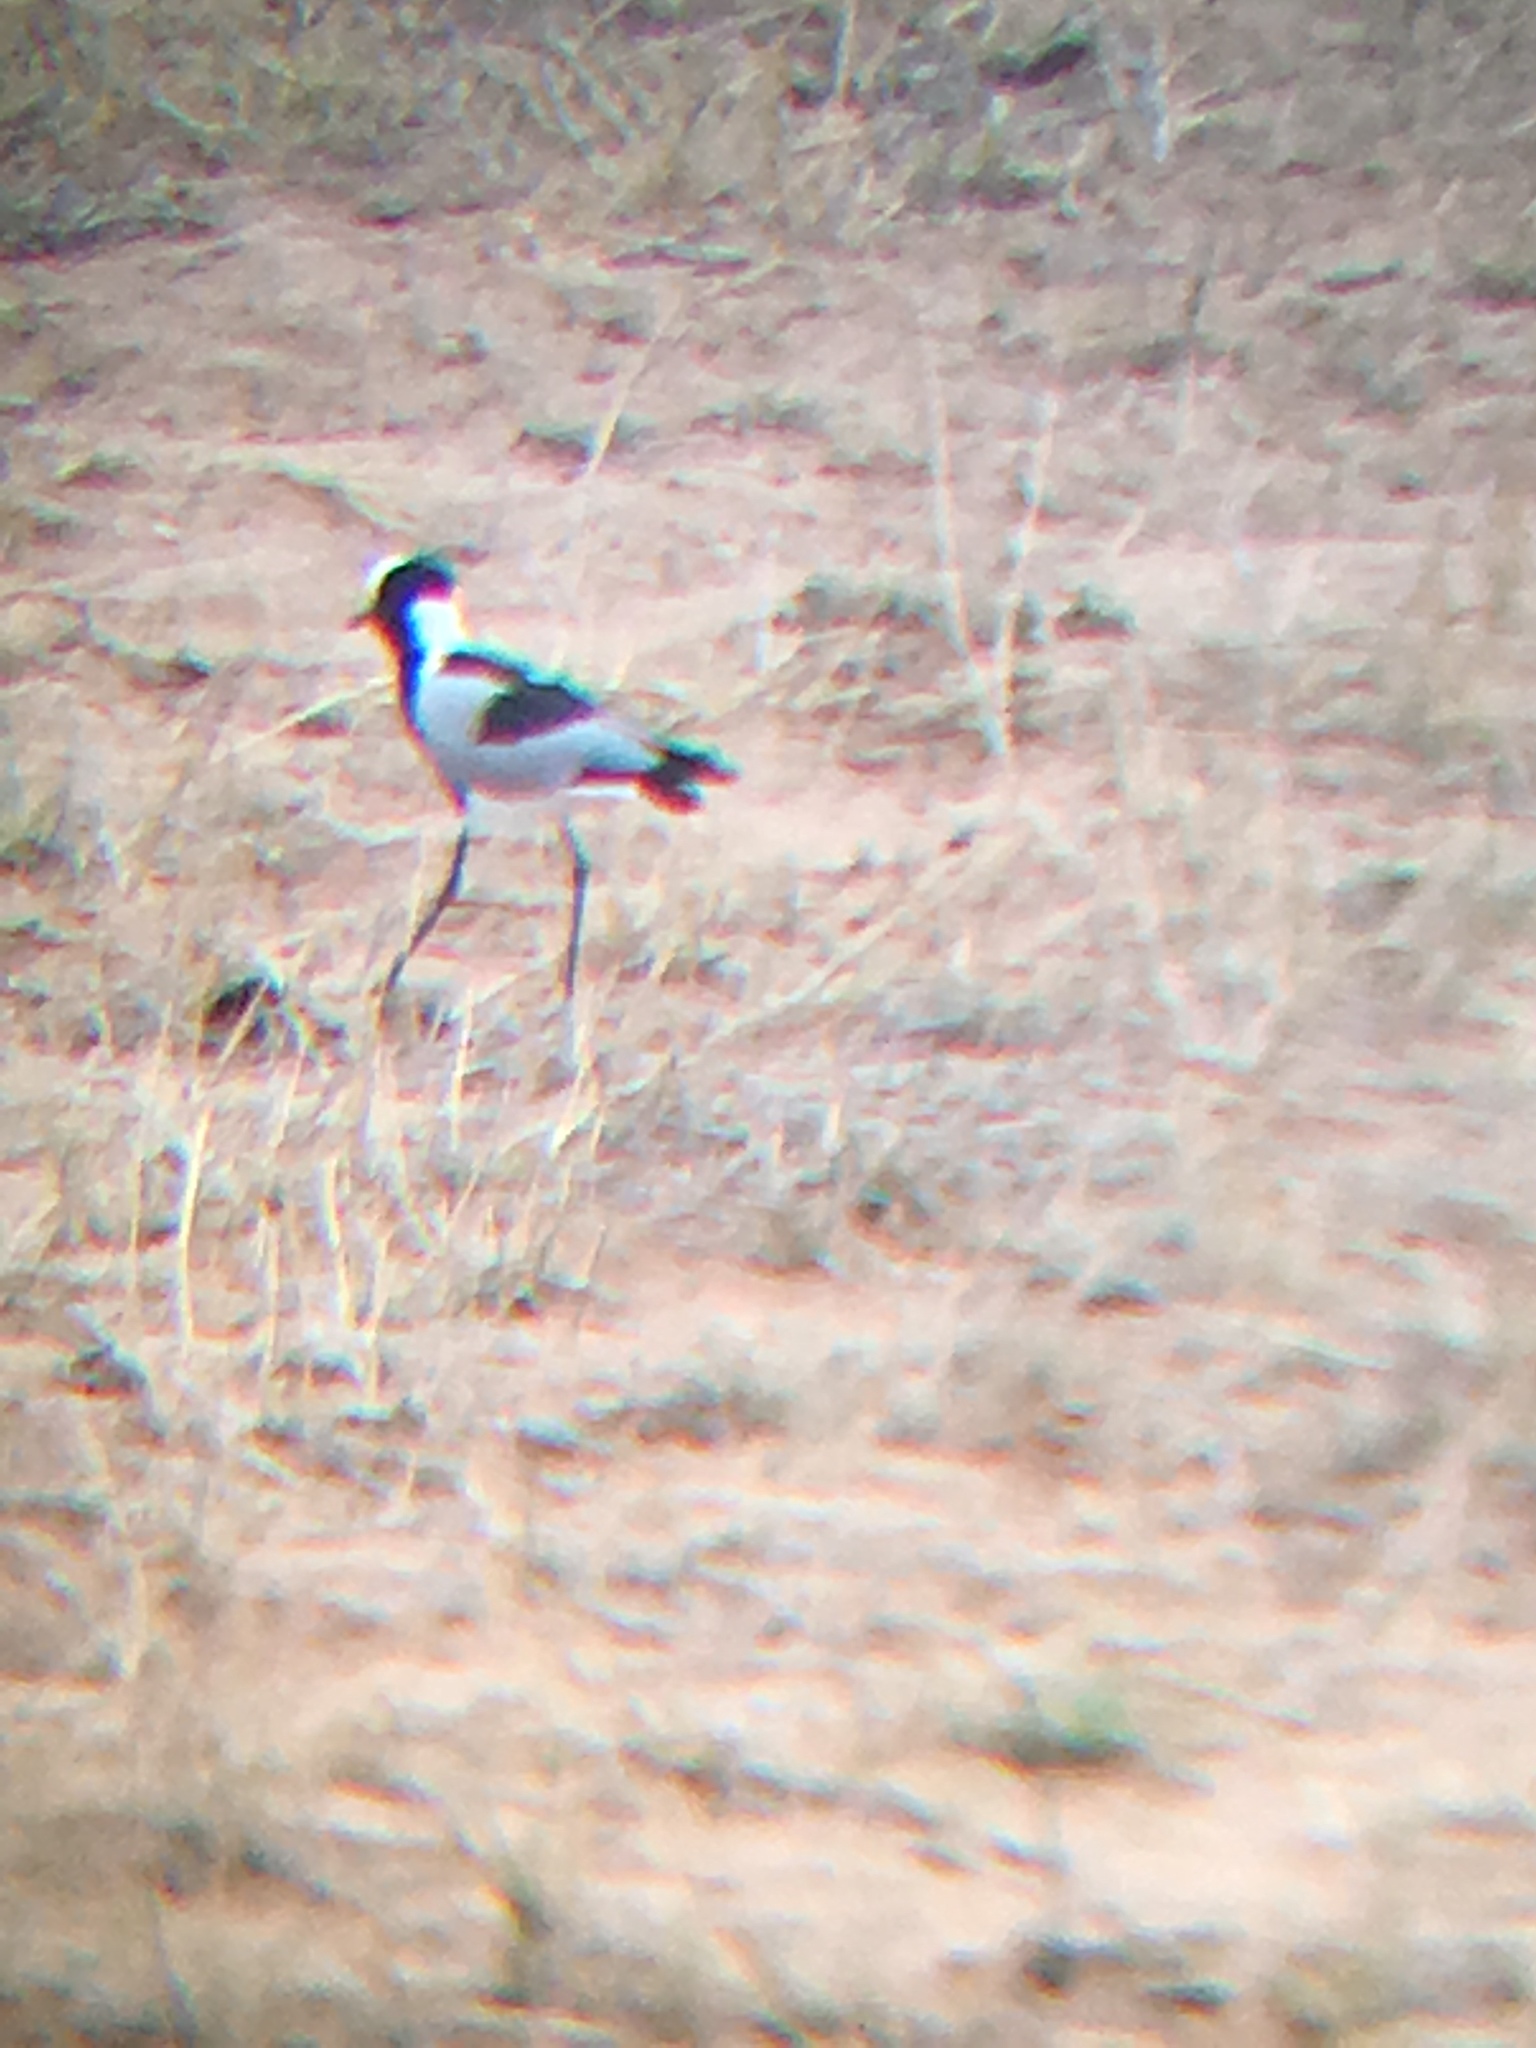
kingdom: Animalia
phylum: Chordata
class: Aves
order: Charadriiformes
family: Charadriidae
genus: Vanellus
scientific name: Vanellus armatus
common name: Blacksmith lapwing
